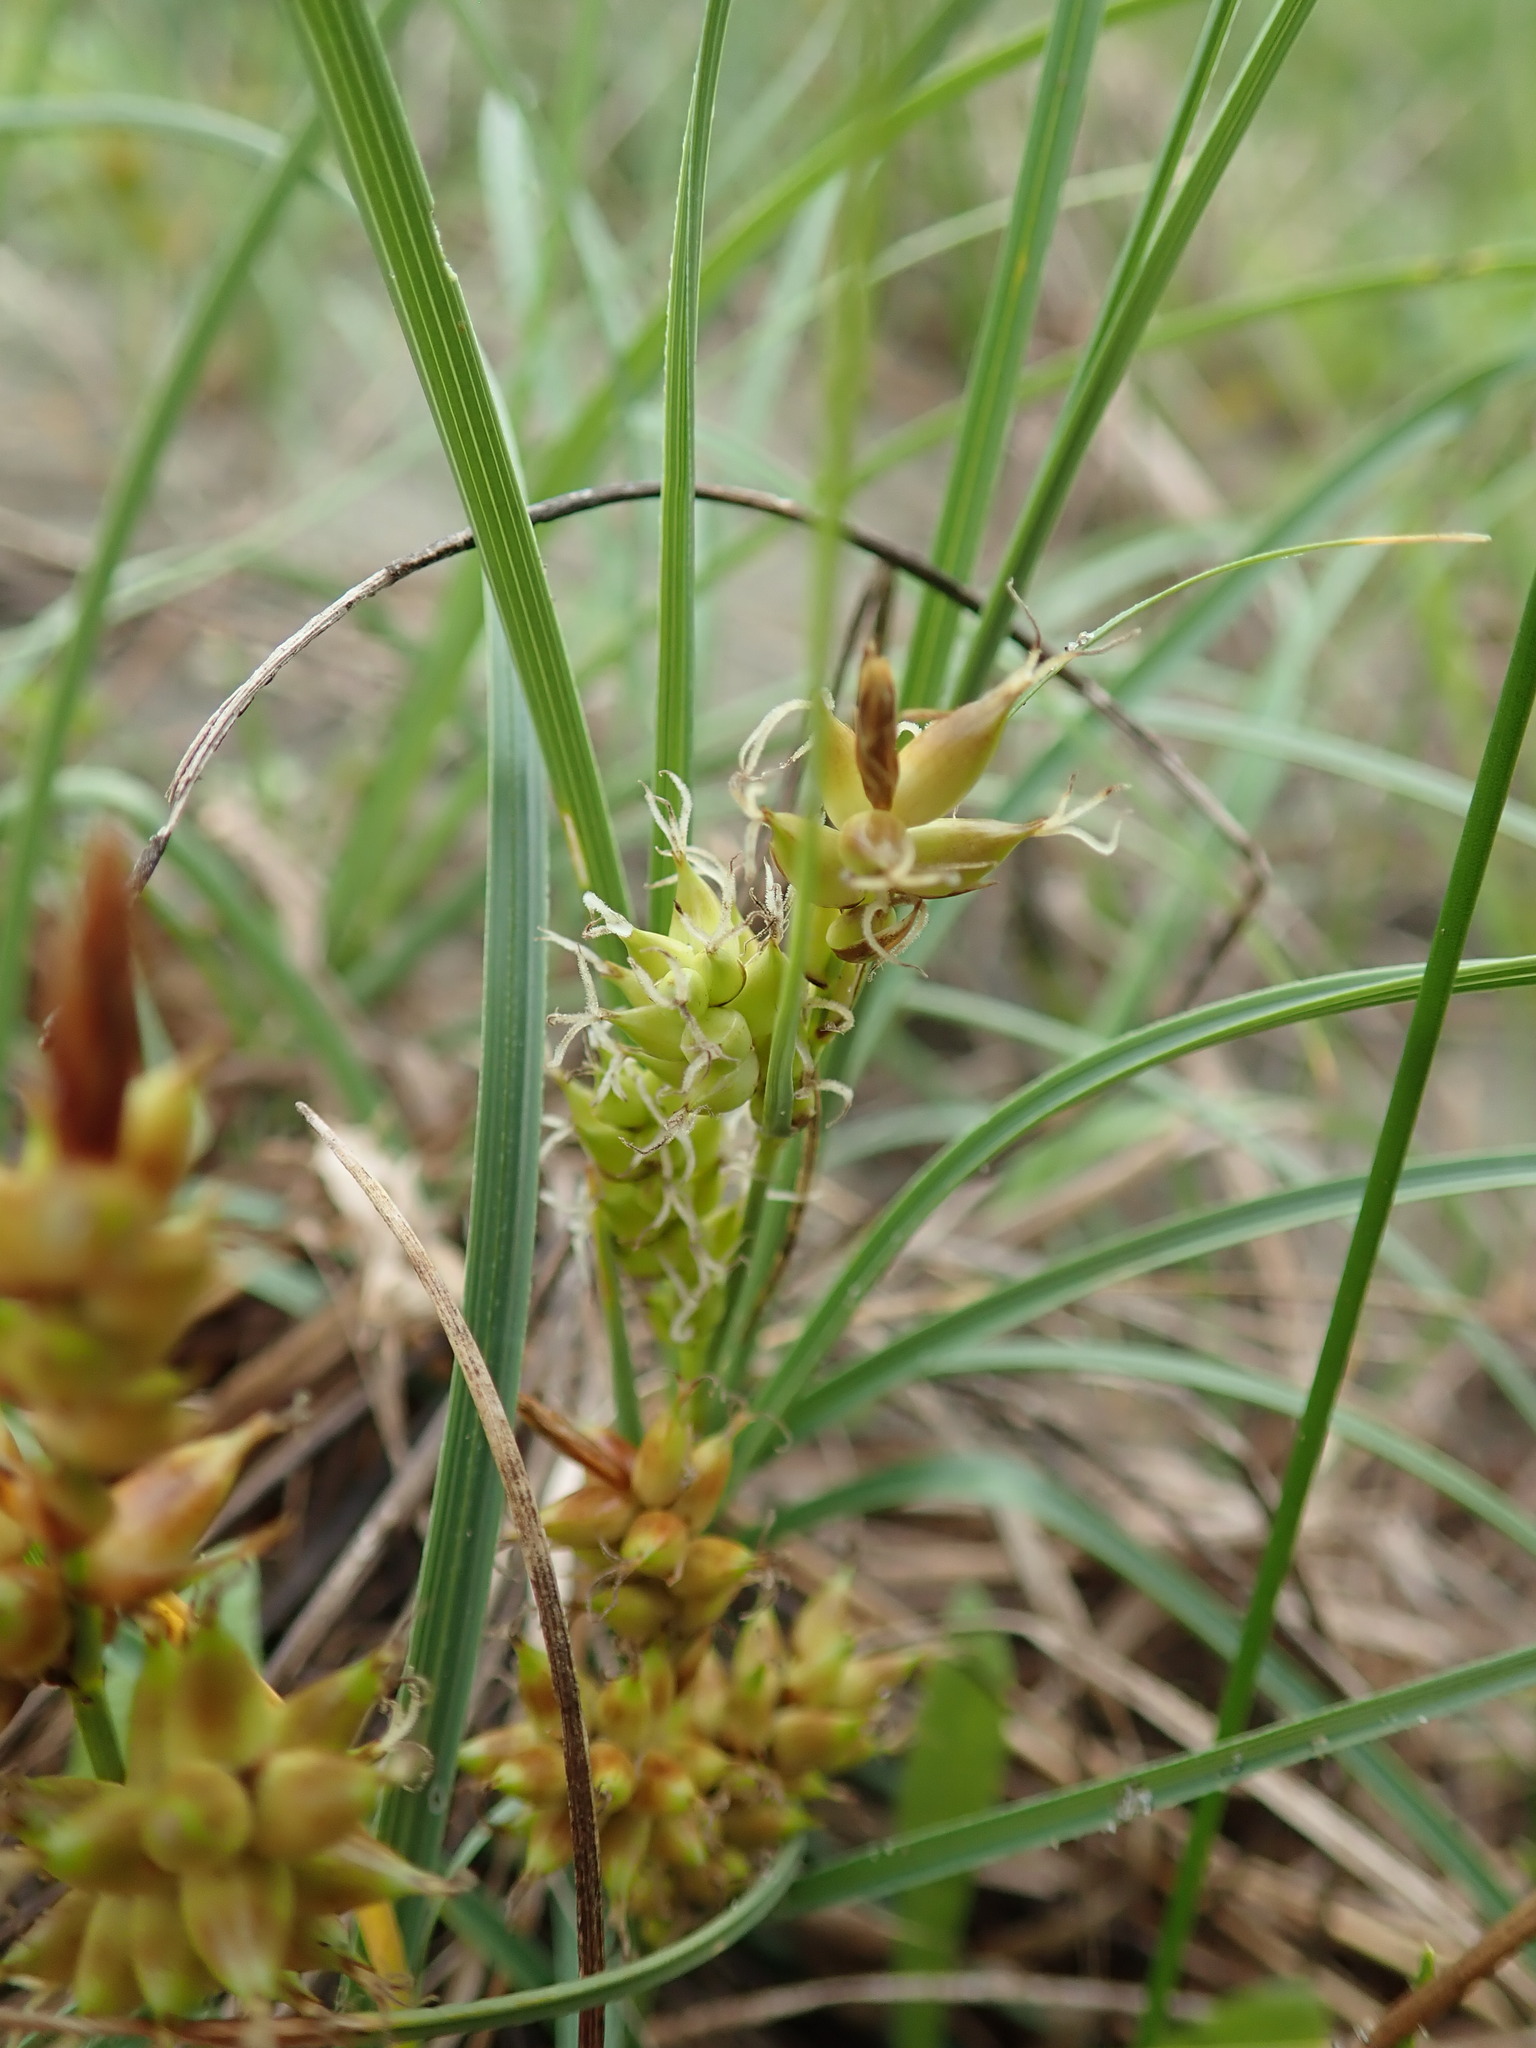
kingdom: Plantae
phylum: Tracheophyta
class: Liliopsida
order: Poales
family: Cyperaceae
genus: Carex
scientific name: Carex pumila
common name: Dwarf sedge
